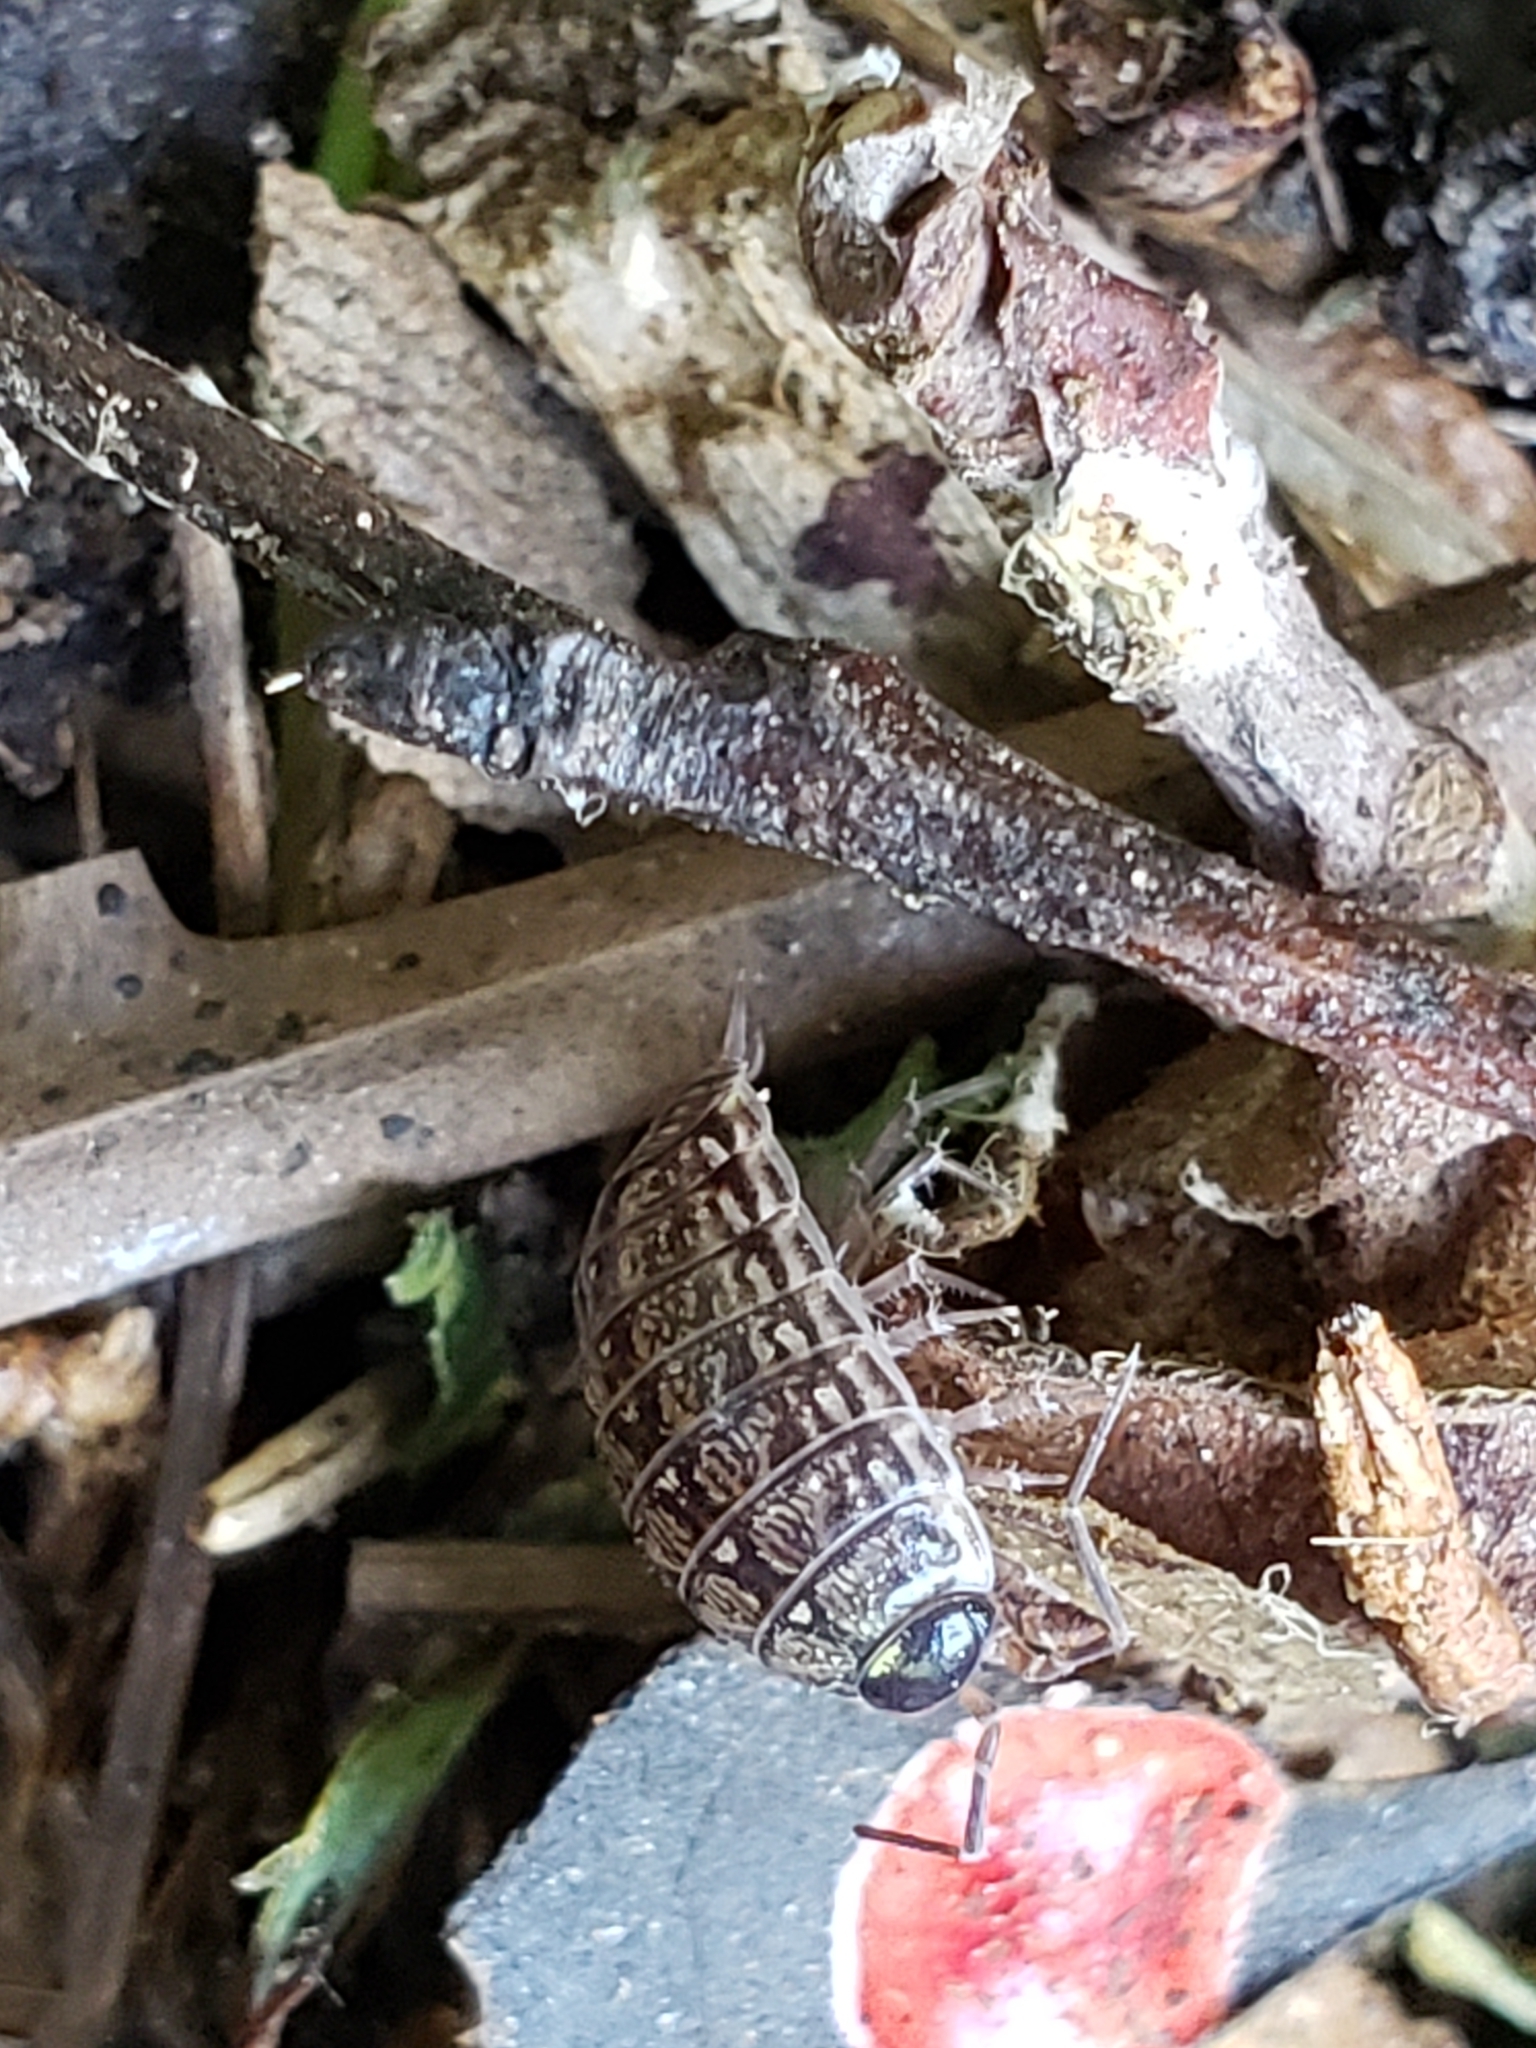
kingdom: Animalia
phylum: Arthropoda
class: Malacostraca
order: Isopoda
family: Philosciidae
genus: Philoscia
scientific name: Philoscia muscorum
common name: Common striped woodlouse
